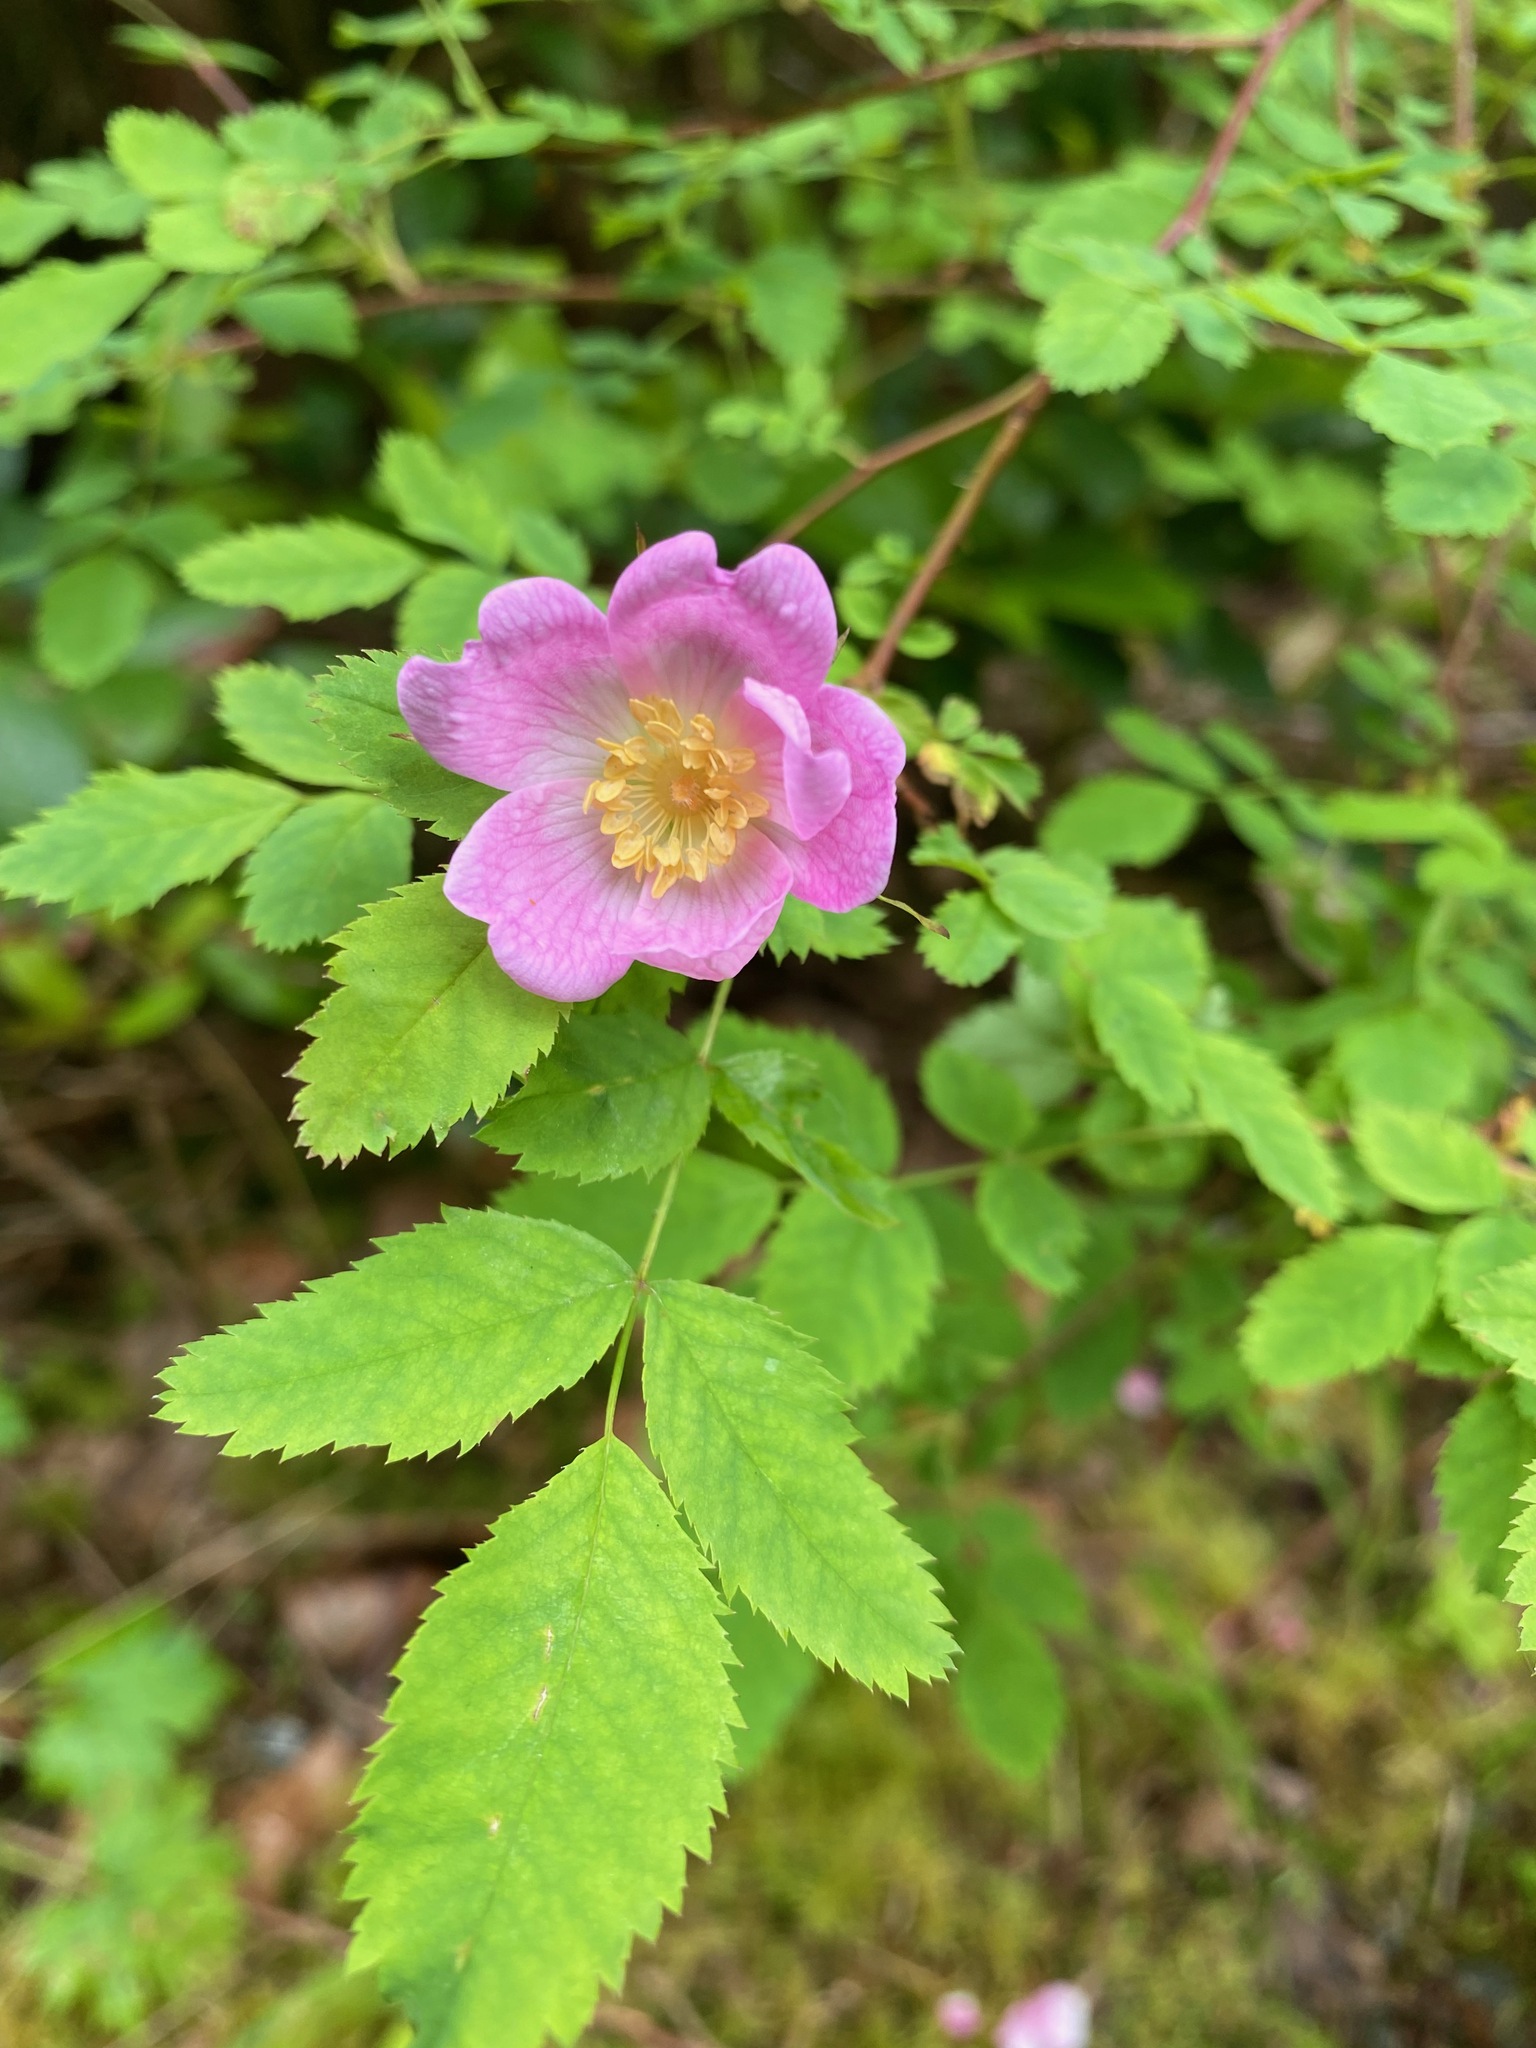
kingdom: Plantae
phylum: Tracheophyta
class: Magnoliopsida
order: Rosales
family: Rosaceae
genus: Rosa
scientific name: Rosa gymnocarpa
